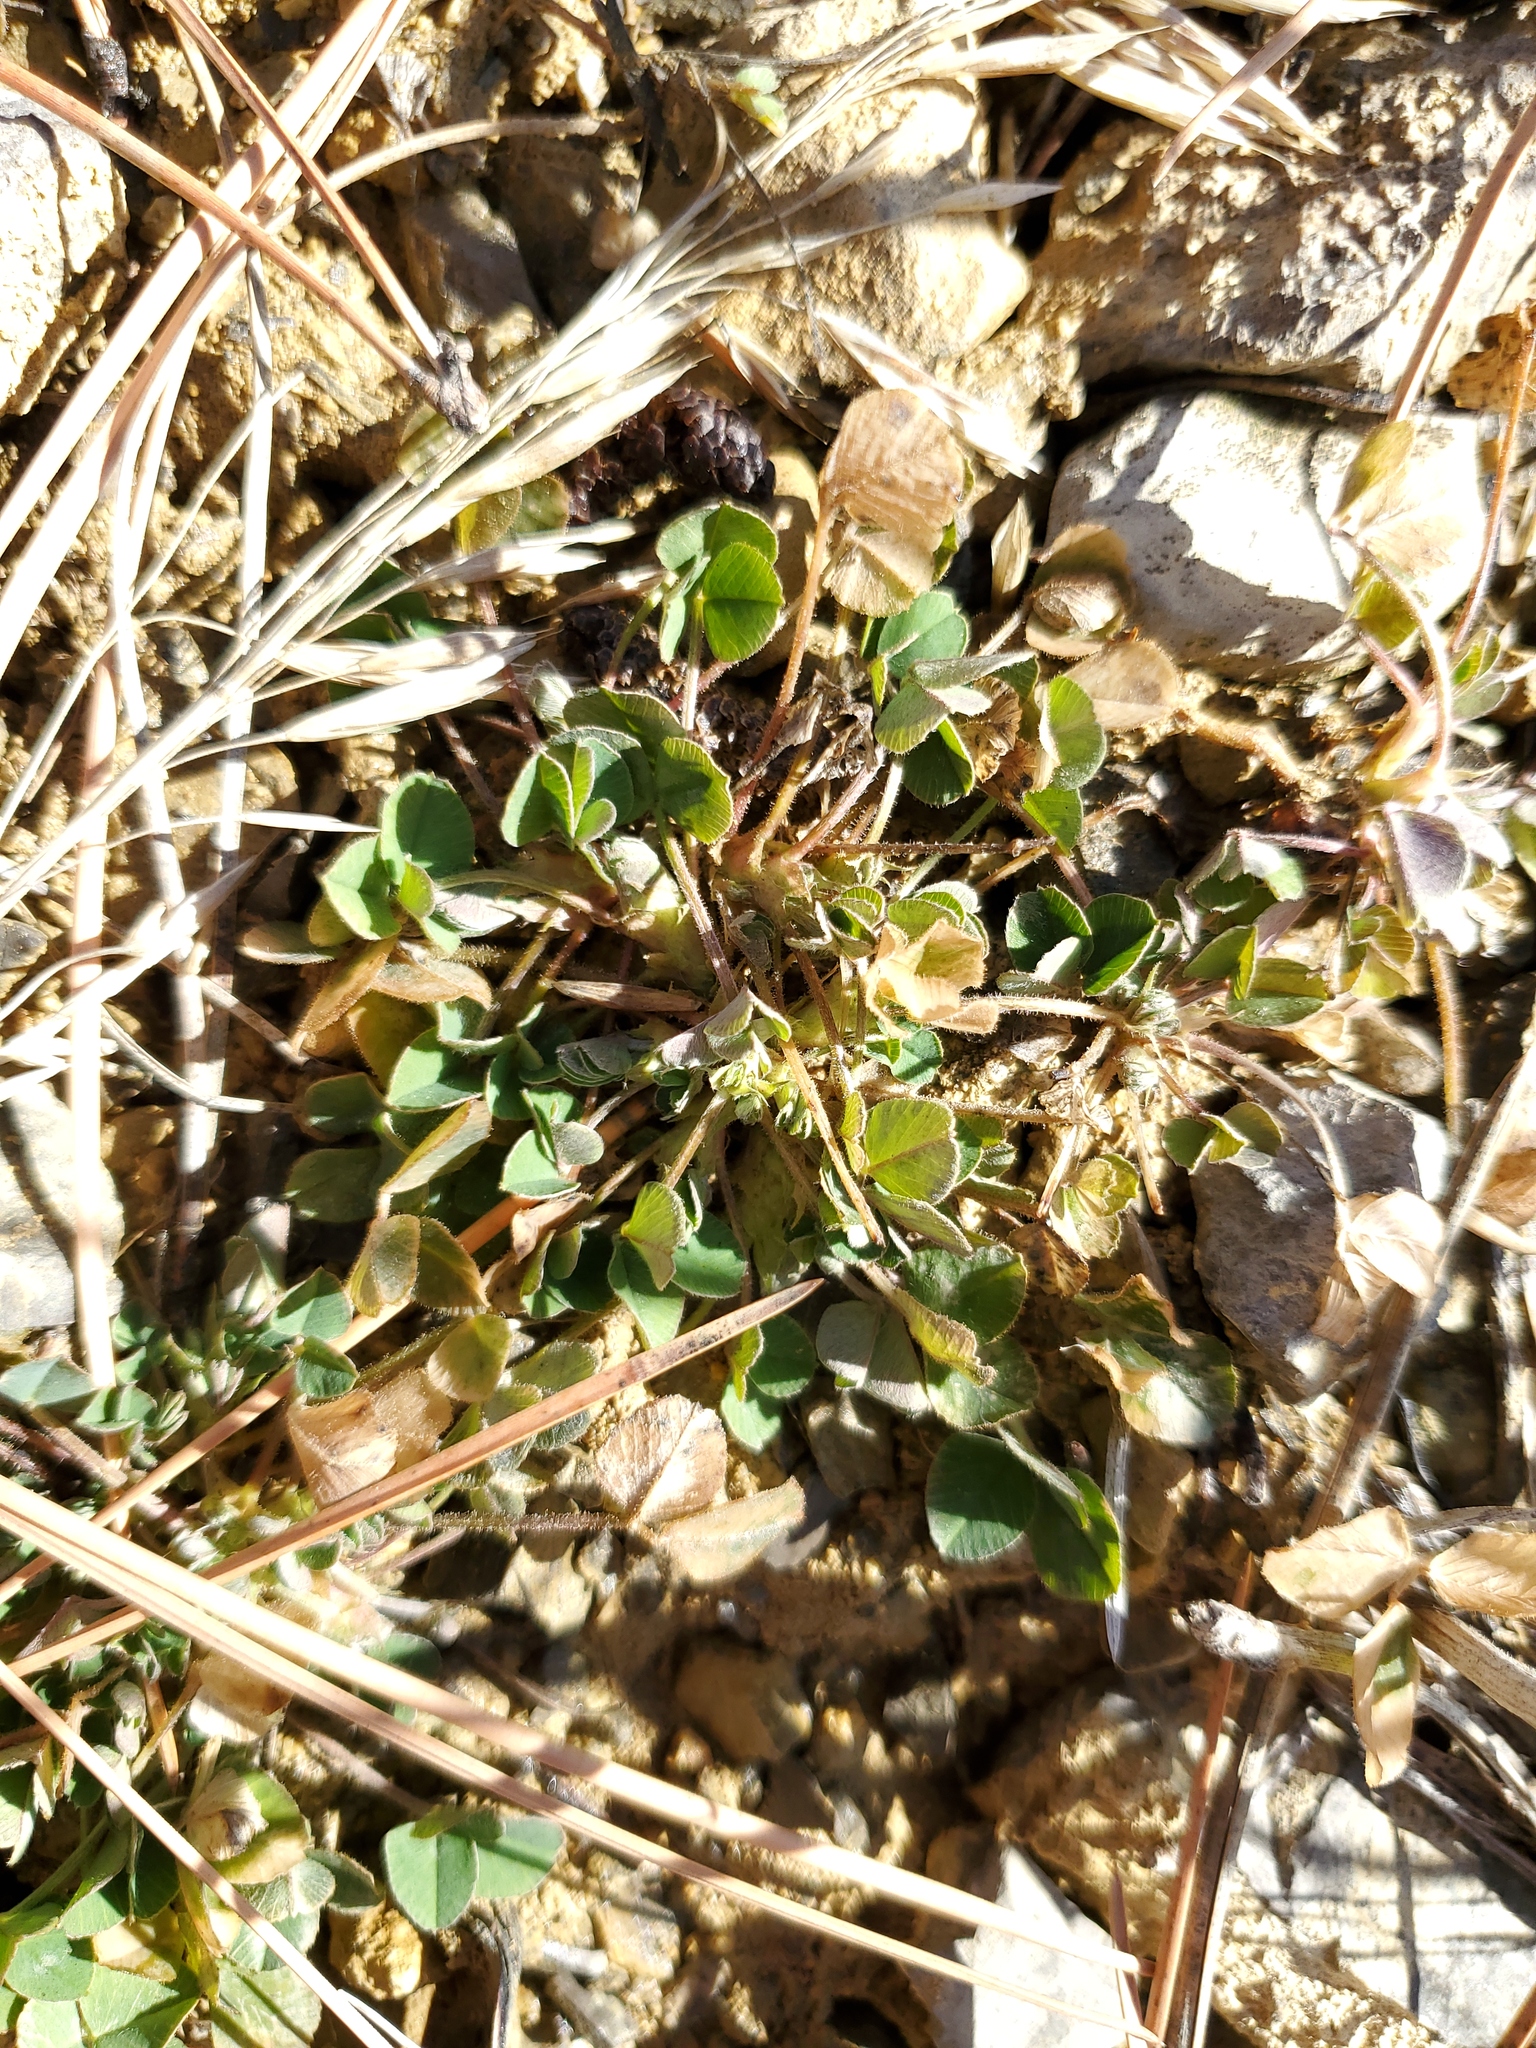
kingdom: Plantae
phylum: Tracheophyta
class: Magnoliopsida
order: Fabales
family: Fabaceae
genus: Medicago
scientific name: Medicago lupulina
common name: Black medick
